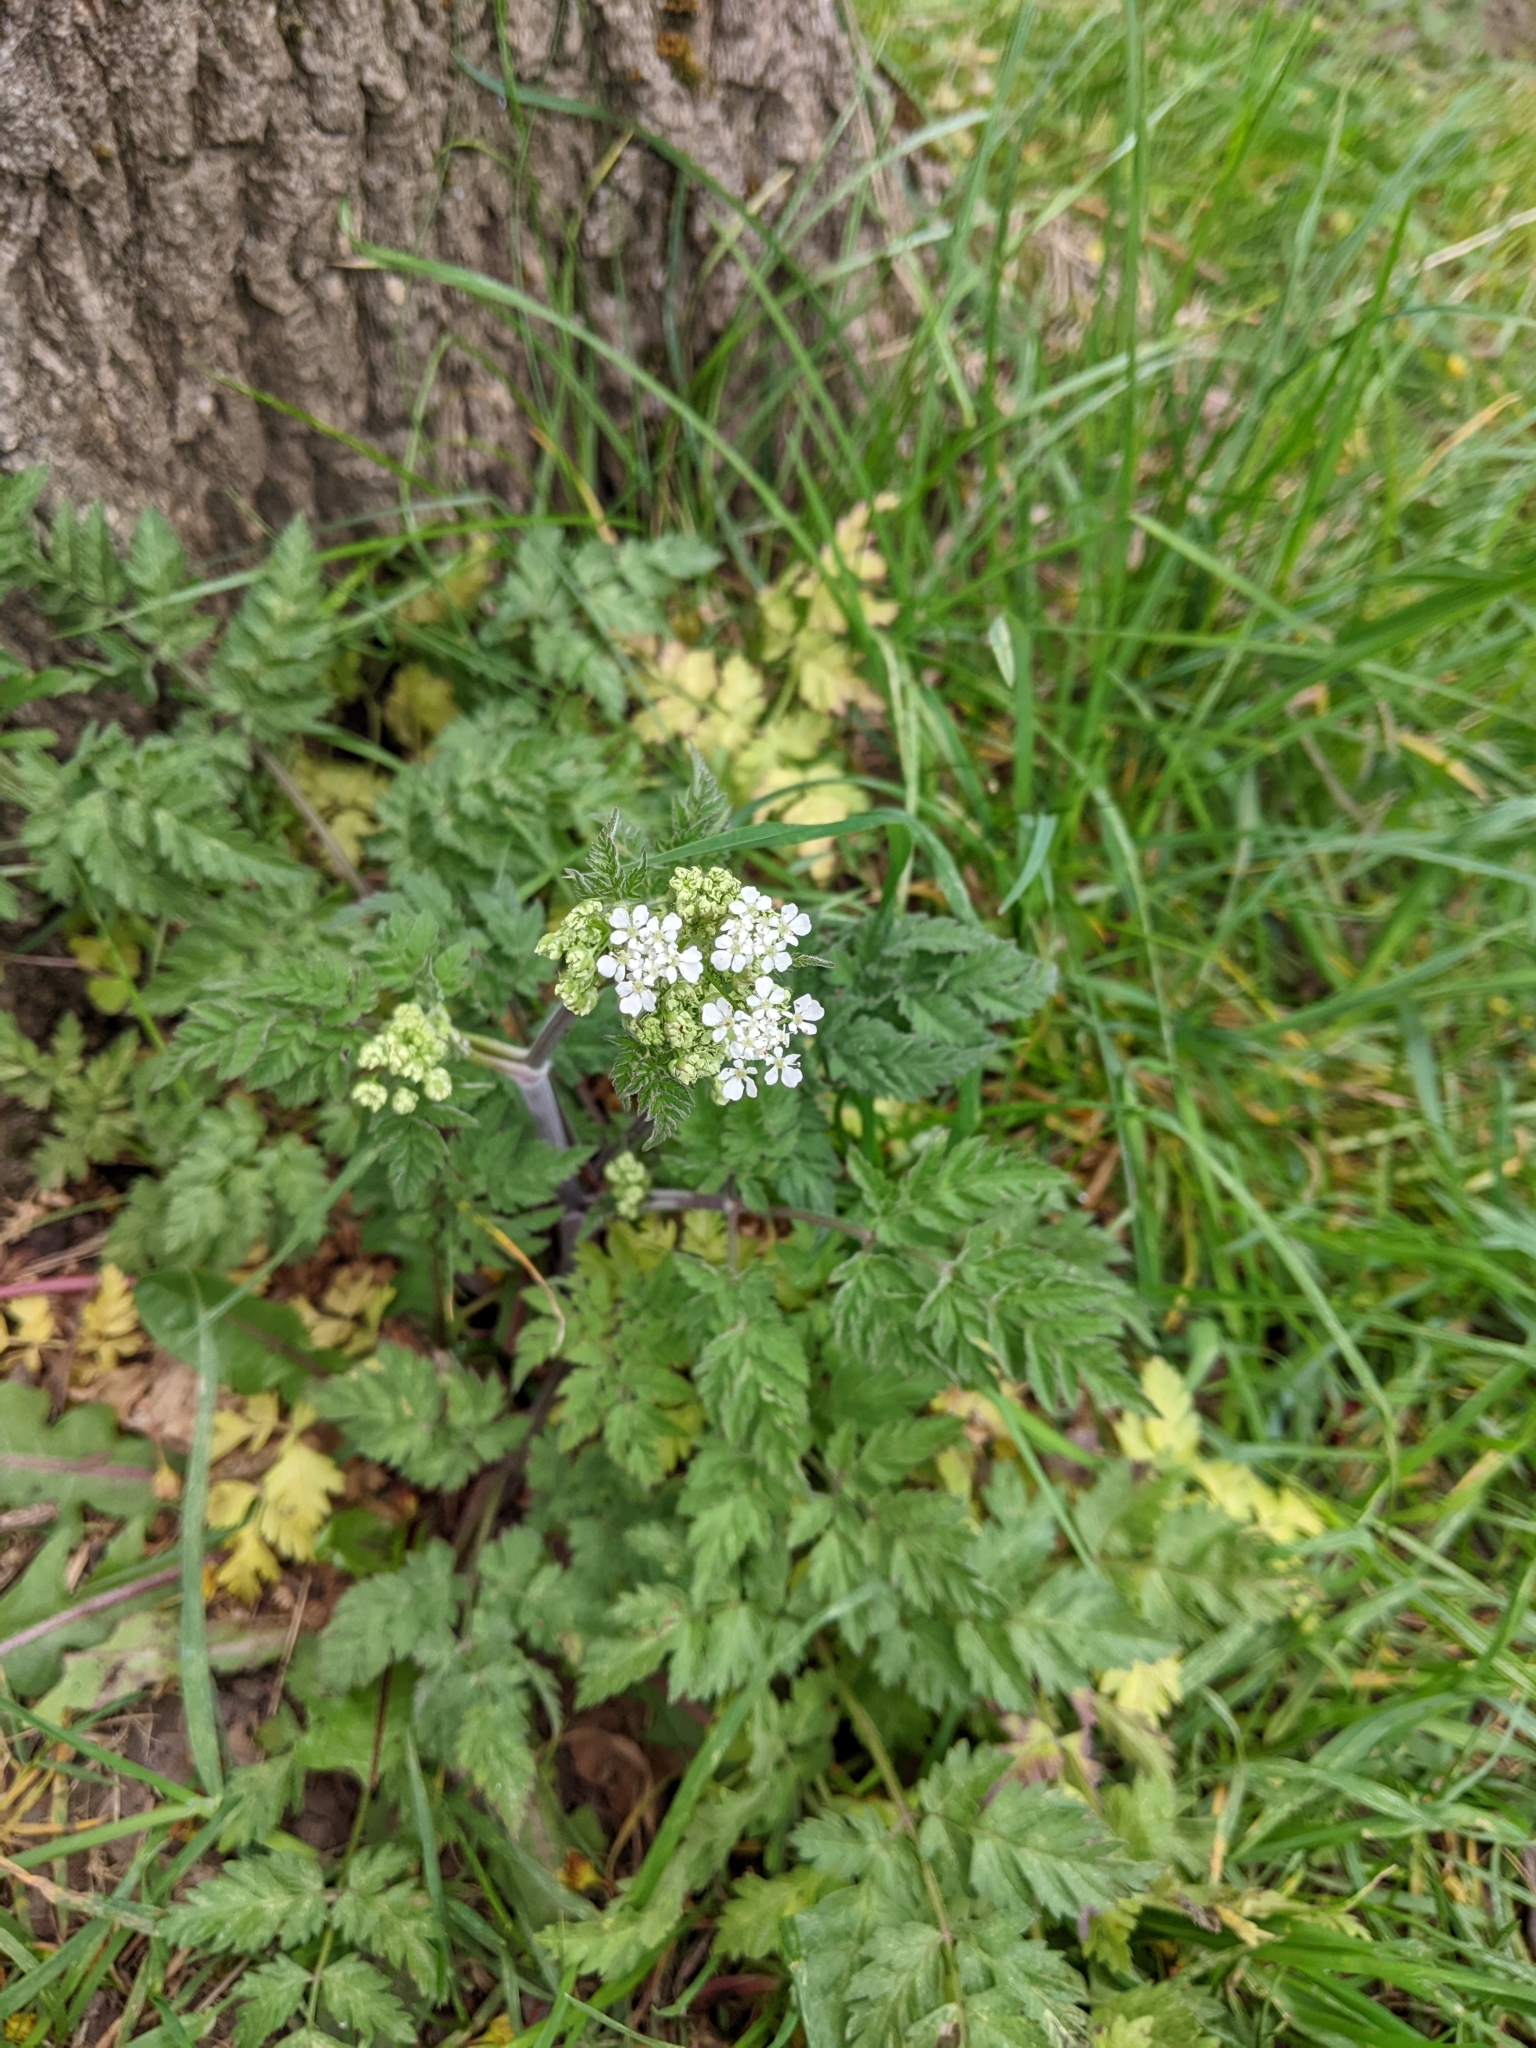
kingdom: Plantae
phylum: Tracheophyta
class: Magnoliopsida
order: Apiales
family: Apiaceae
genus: Anthriscus
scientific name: Anthriscus sylvestris
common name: Cow parsley
